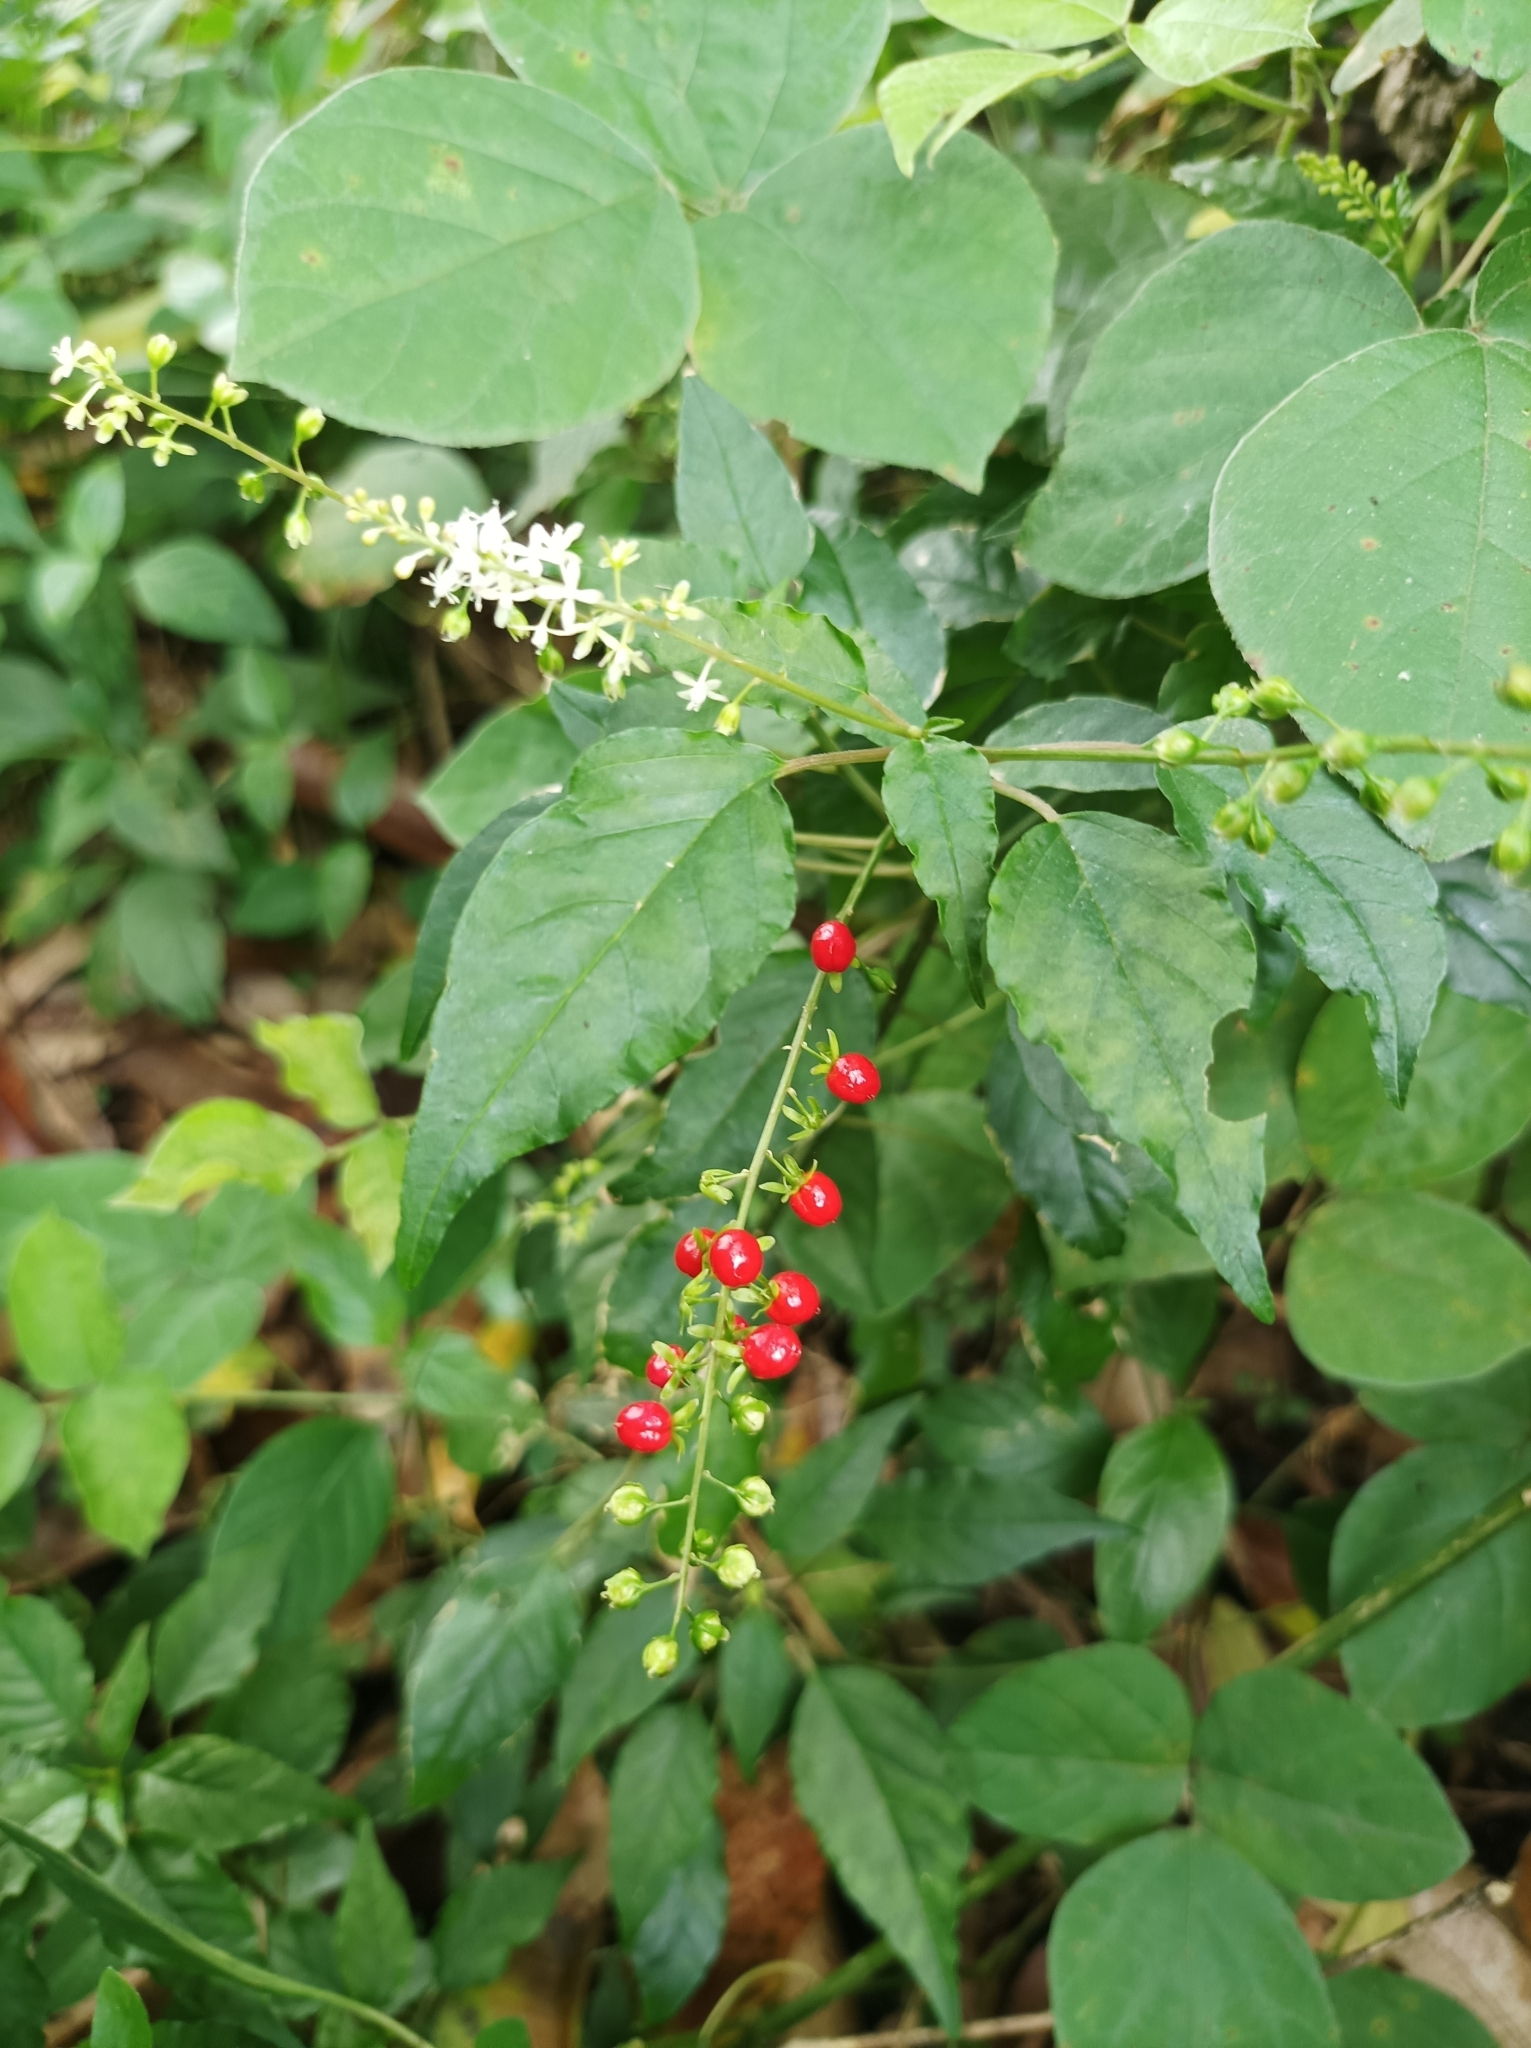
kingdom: Plantae
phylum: Tracheophyta
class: Magnoliopsida
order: Caryophyllales
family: Phytolaccaceae
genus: Rivina
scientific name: Rivina humilis
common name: Rougeplant
